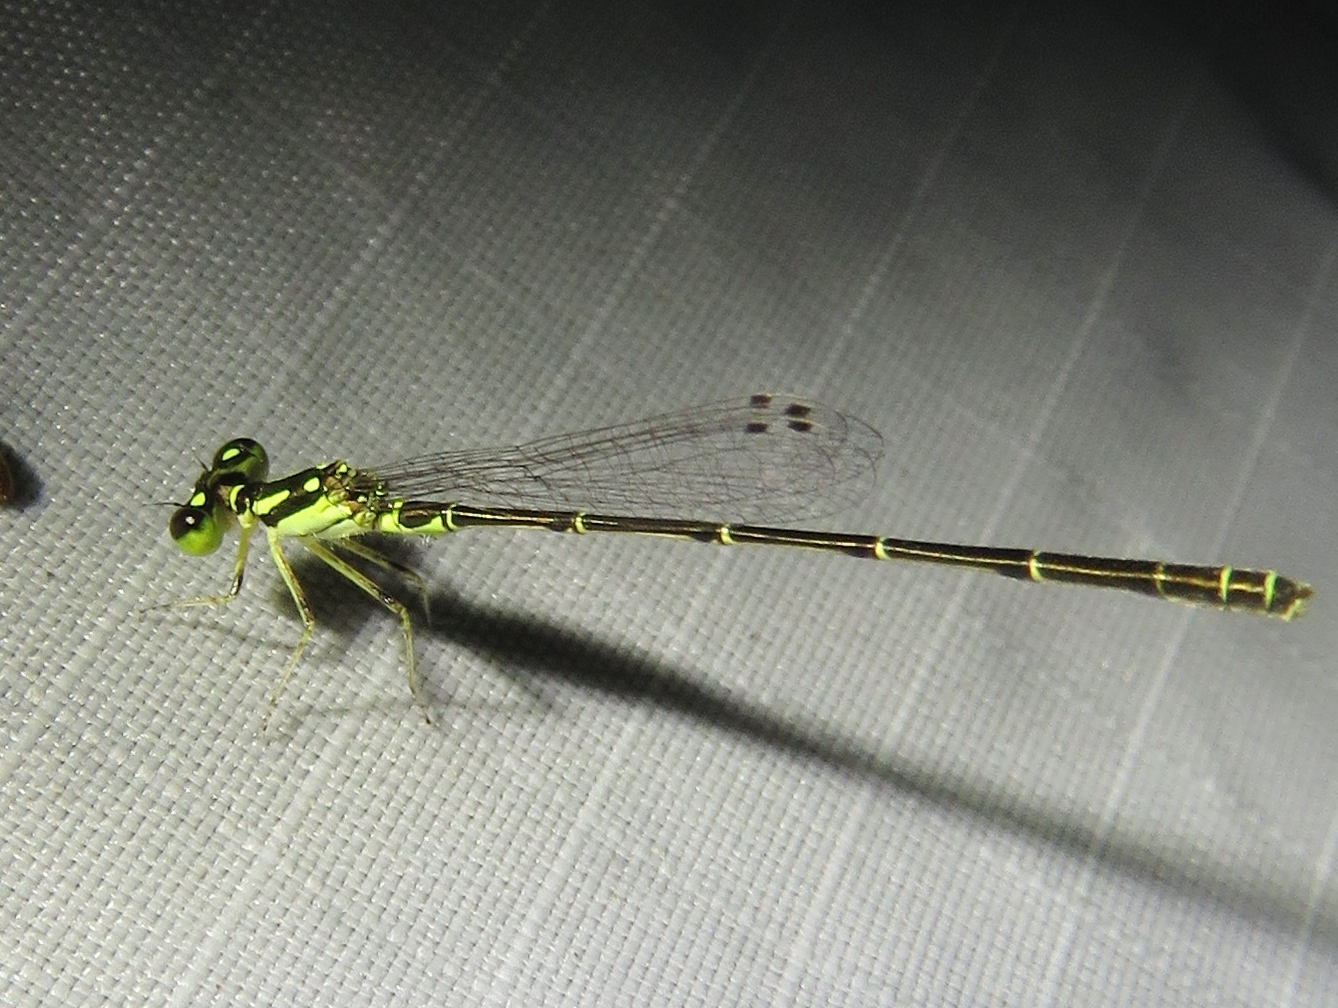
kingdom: Animalia
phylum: Arthropoda
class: Insecta
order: Odonata
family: Coenagrionidae
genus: Ischnura
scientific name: Ischnura posita
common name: Fragile forktail
